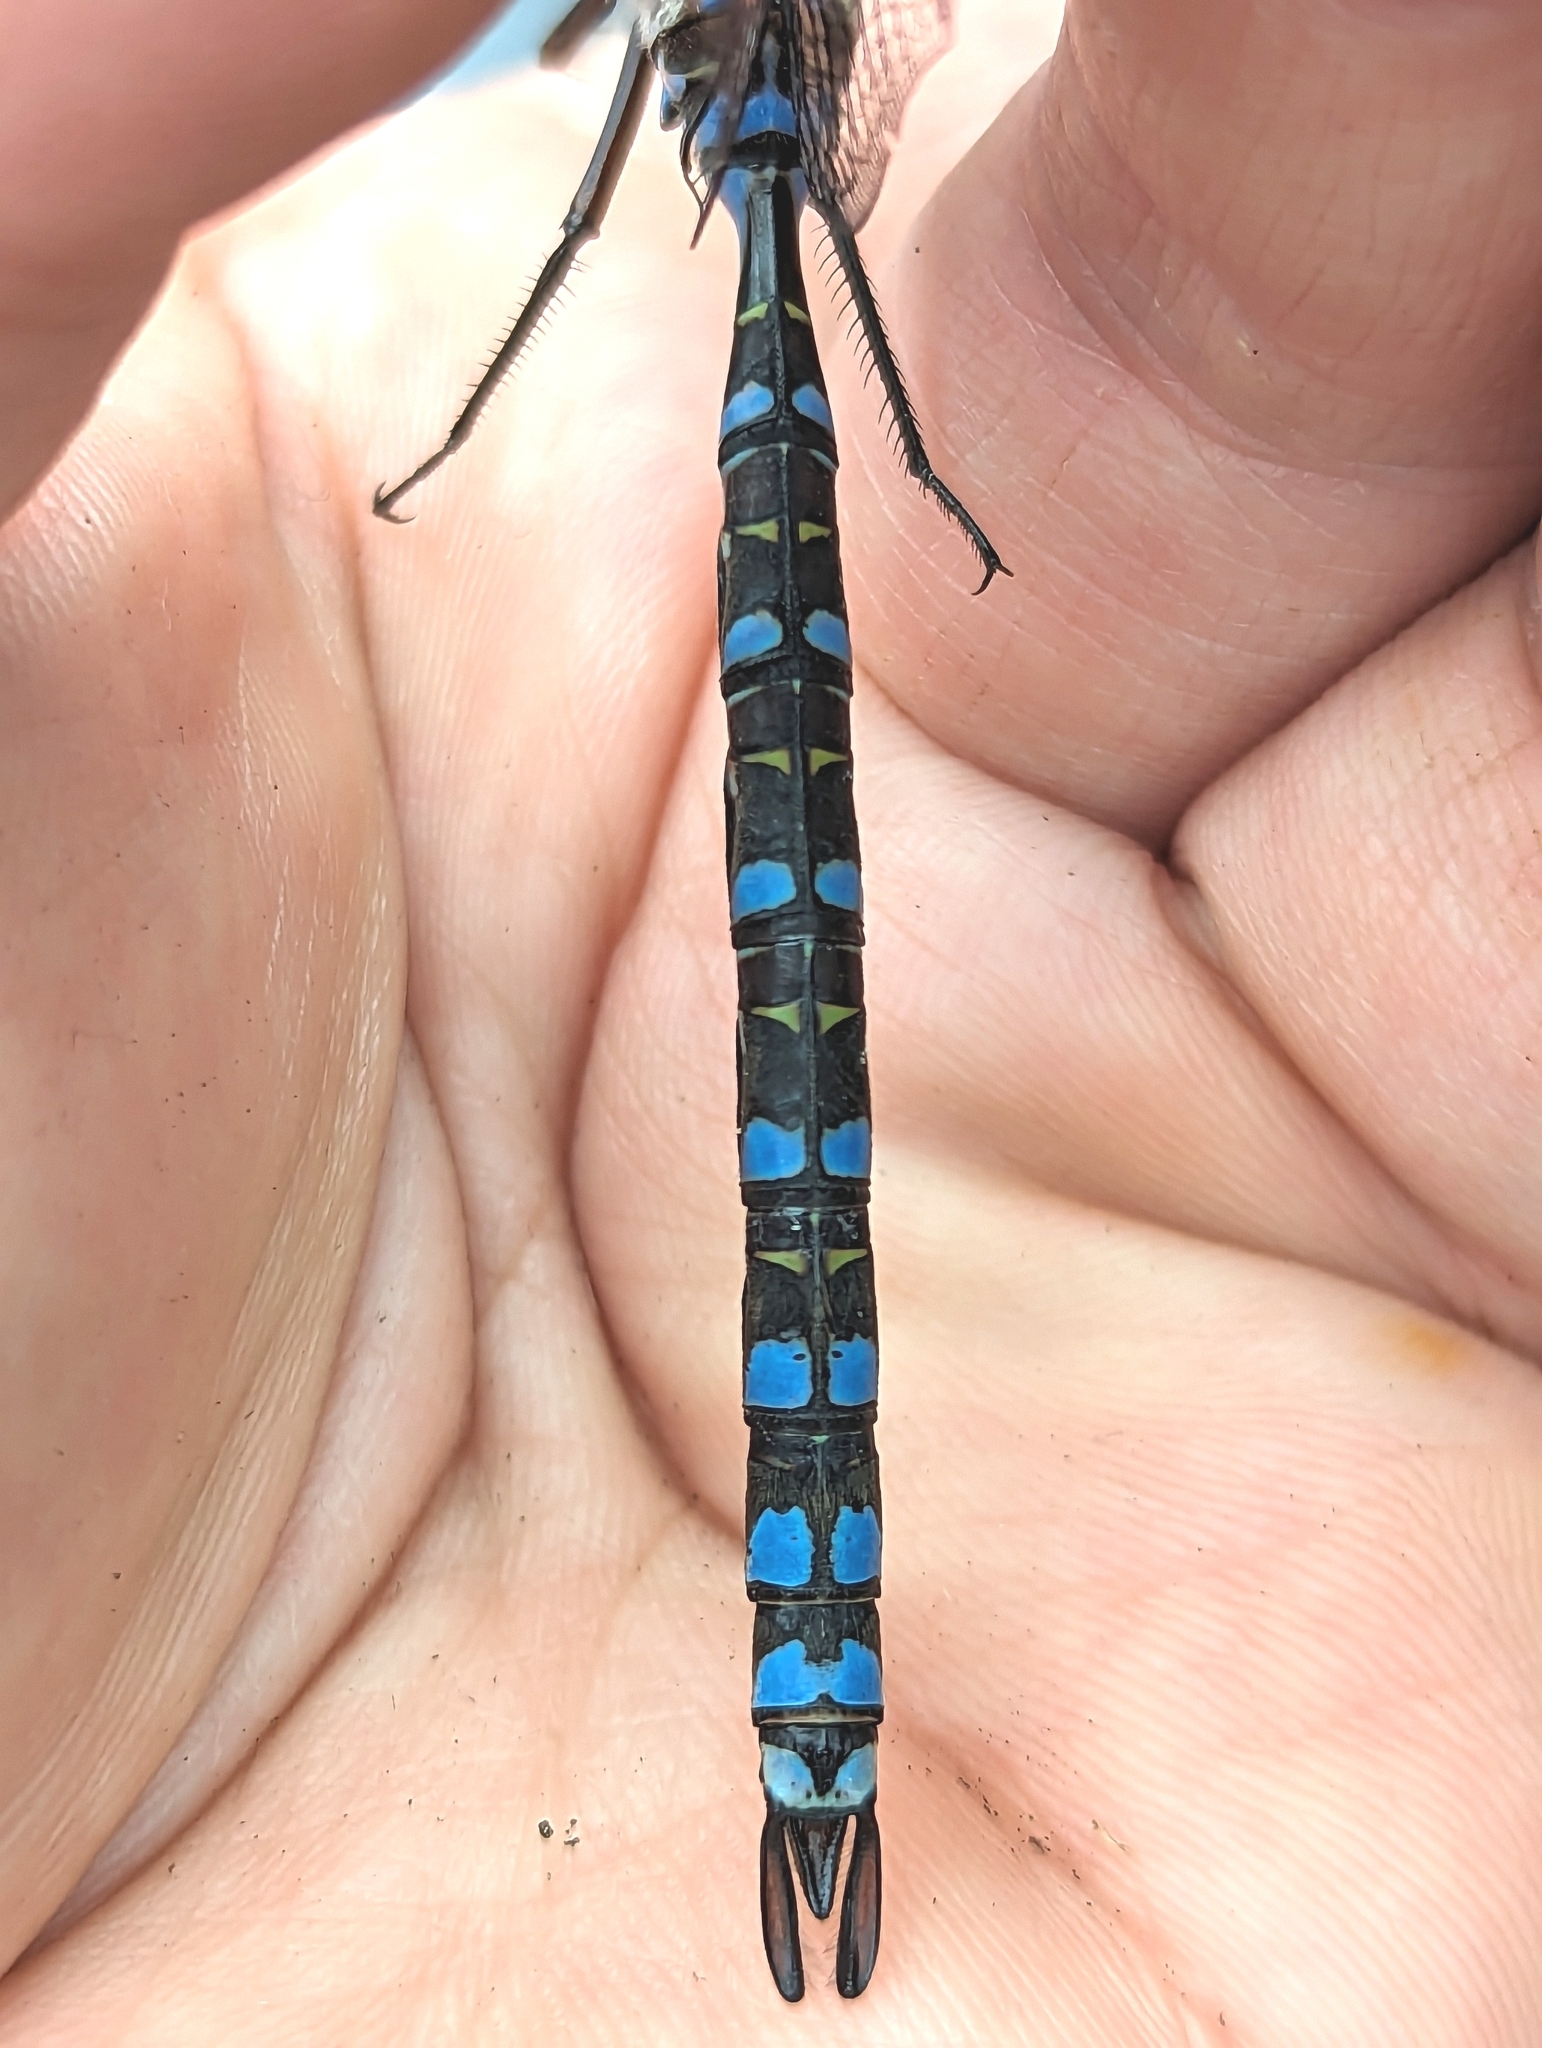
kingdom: Animalia
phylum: Arthropoda
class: Insecta
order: Odonata
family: Aeshnidae
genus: Aeshna
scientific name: Aeshna eremita
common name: Lake darner
